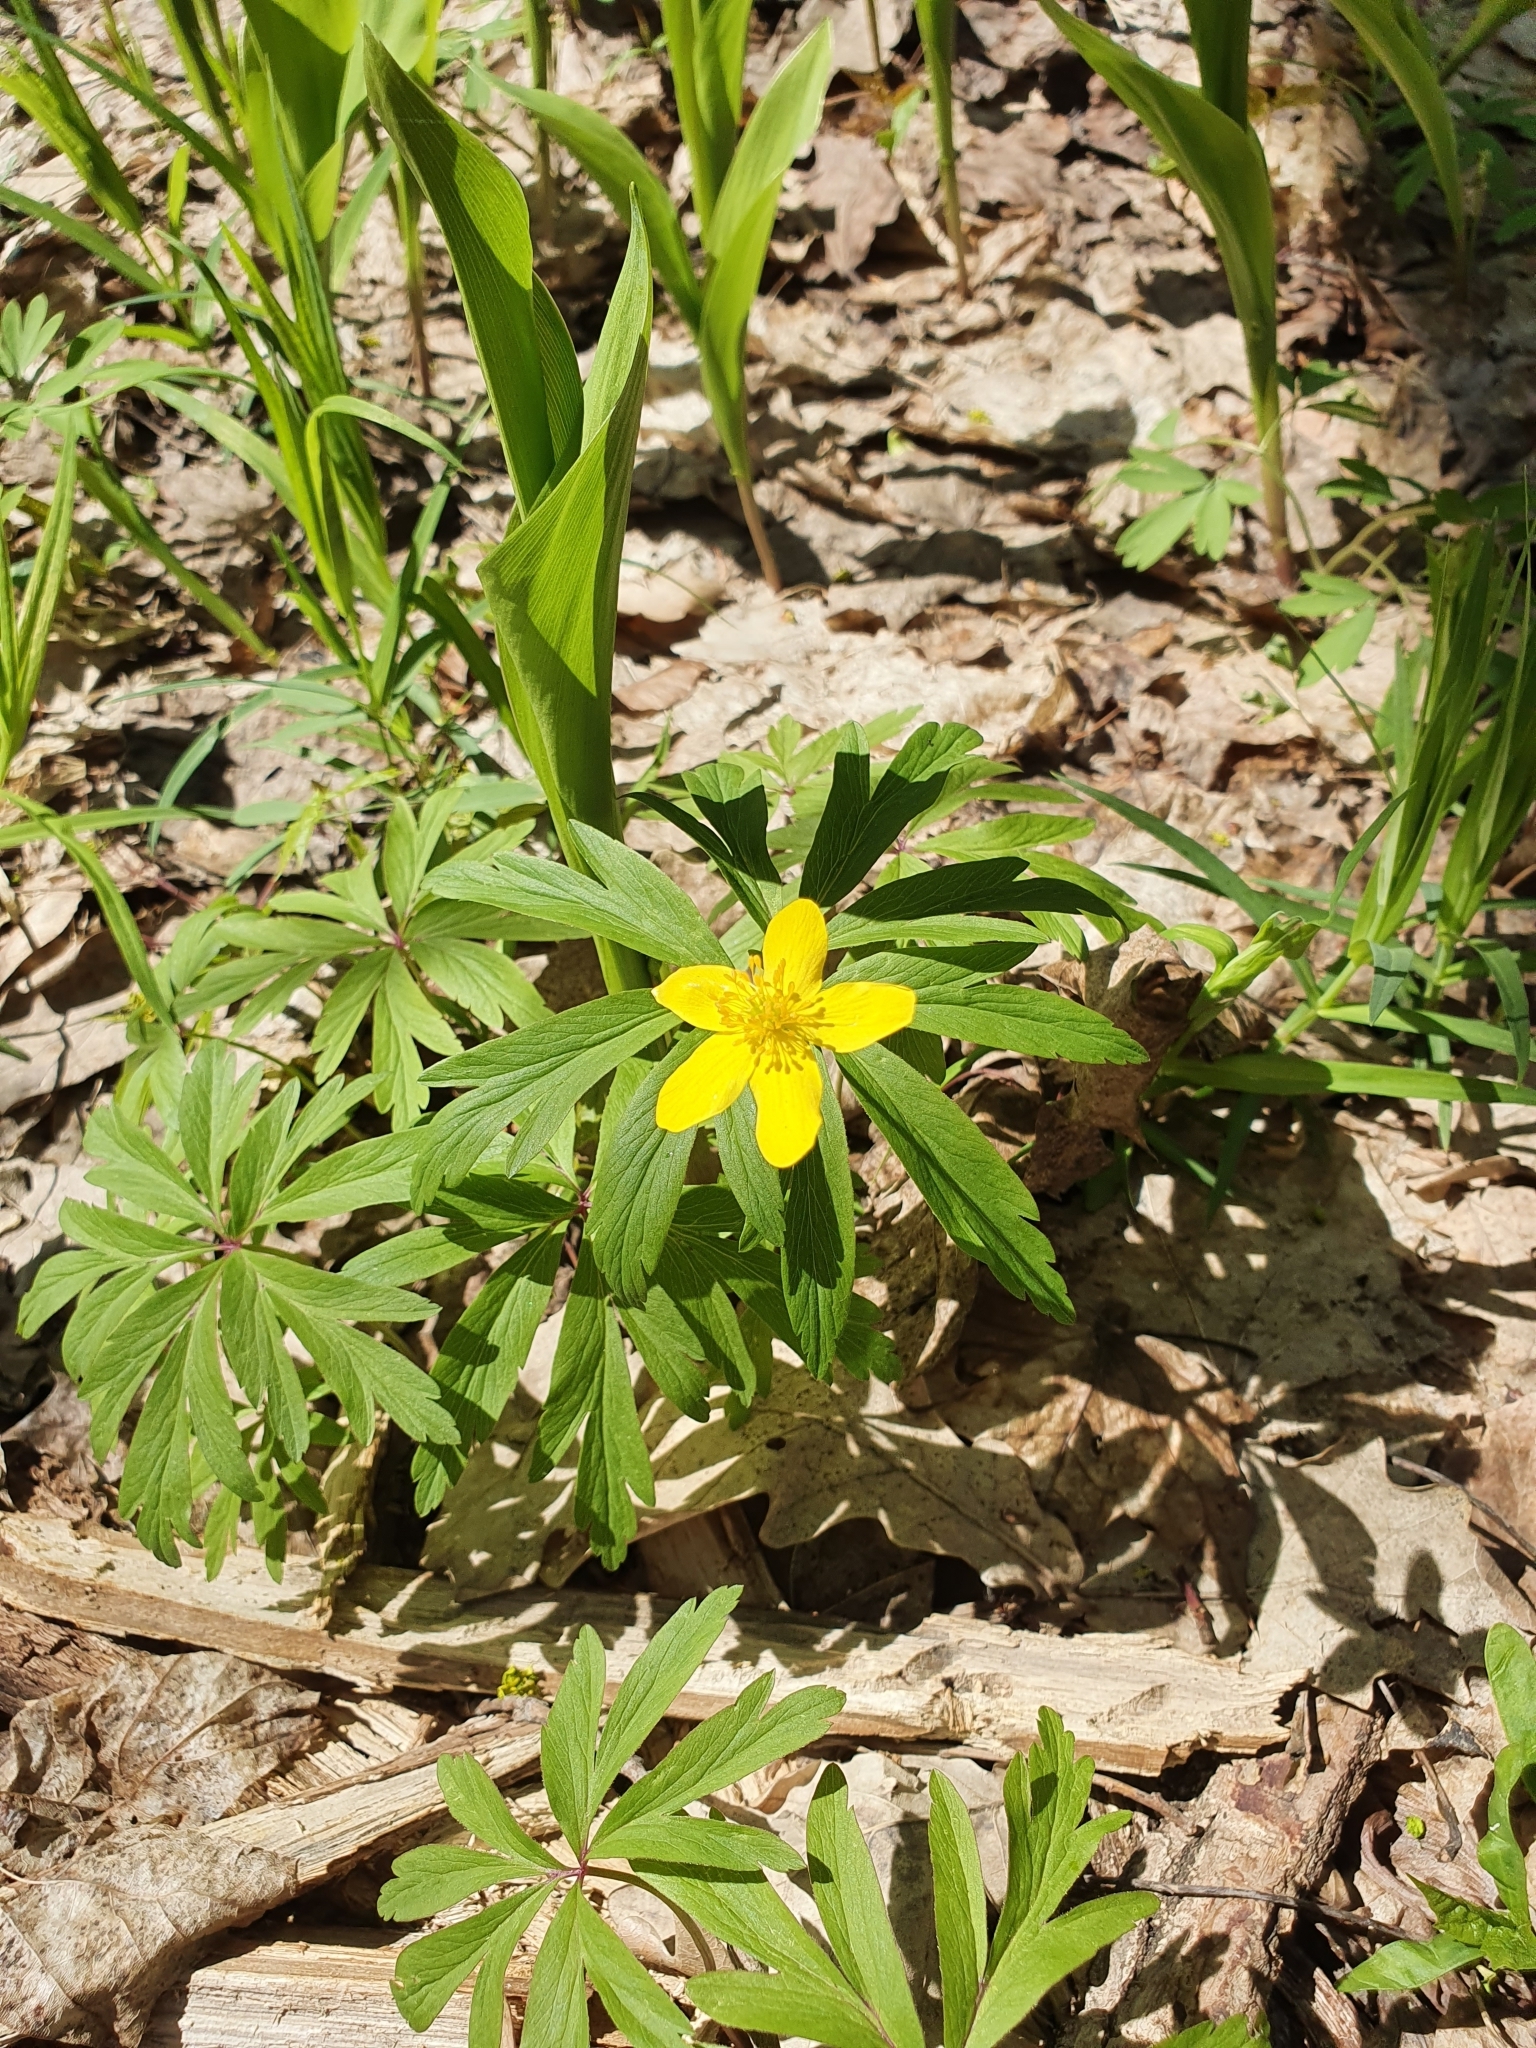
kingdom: Plantae
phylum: Tracheophyta
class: Magnoliopsida
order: Ranunculales
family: Ranunculaceae
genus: Anemone
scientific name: Anemone ranunculoides
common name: Yellow anemone
